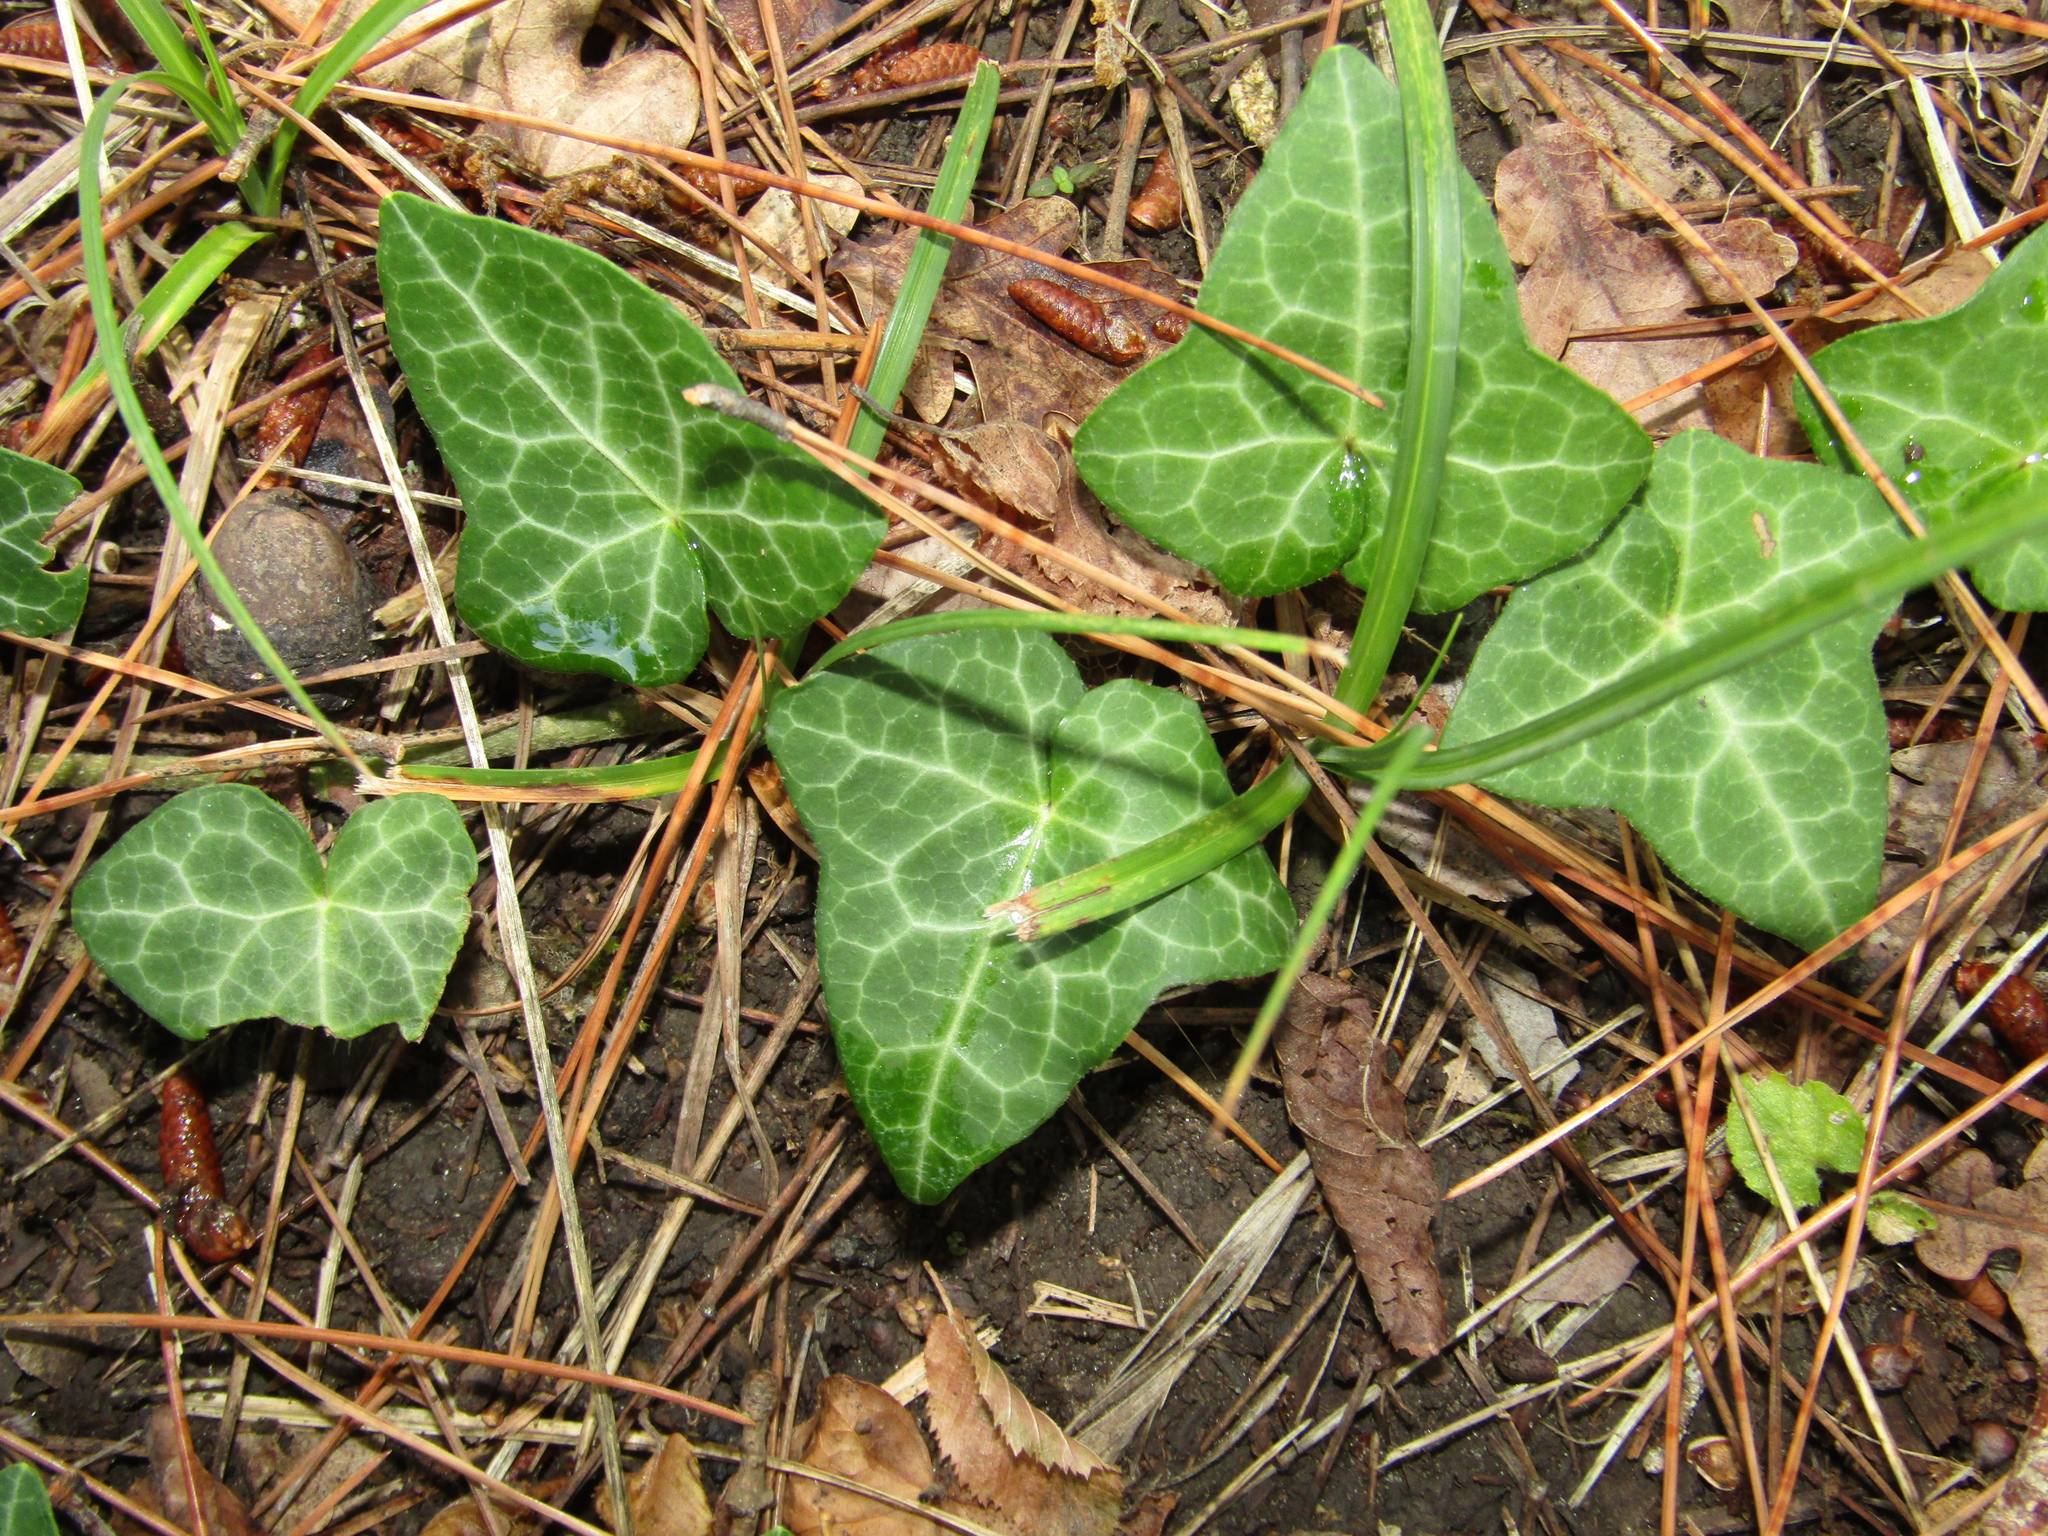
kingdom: Plantae
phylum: Tracheophyta
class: Magnoliopsida
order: Apiales
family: Araliaceae
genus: Hedera
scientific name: Hedera helix
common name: Ivy
